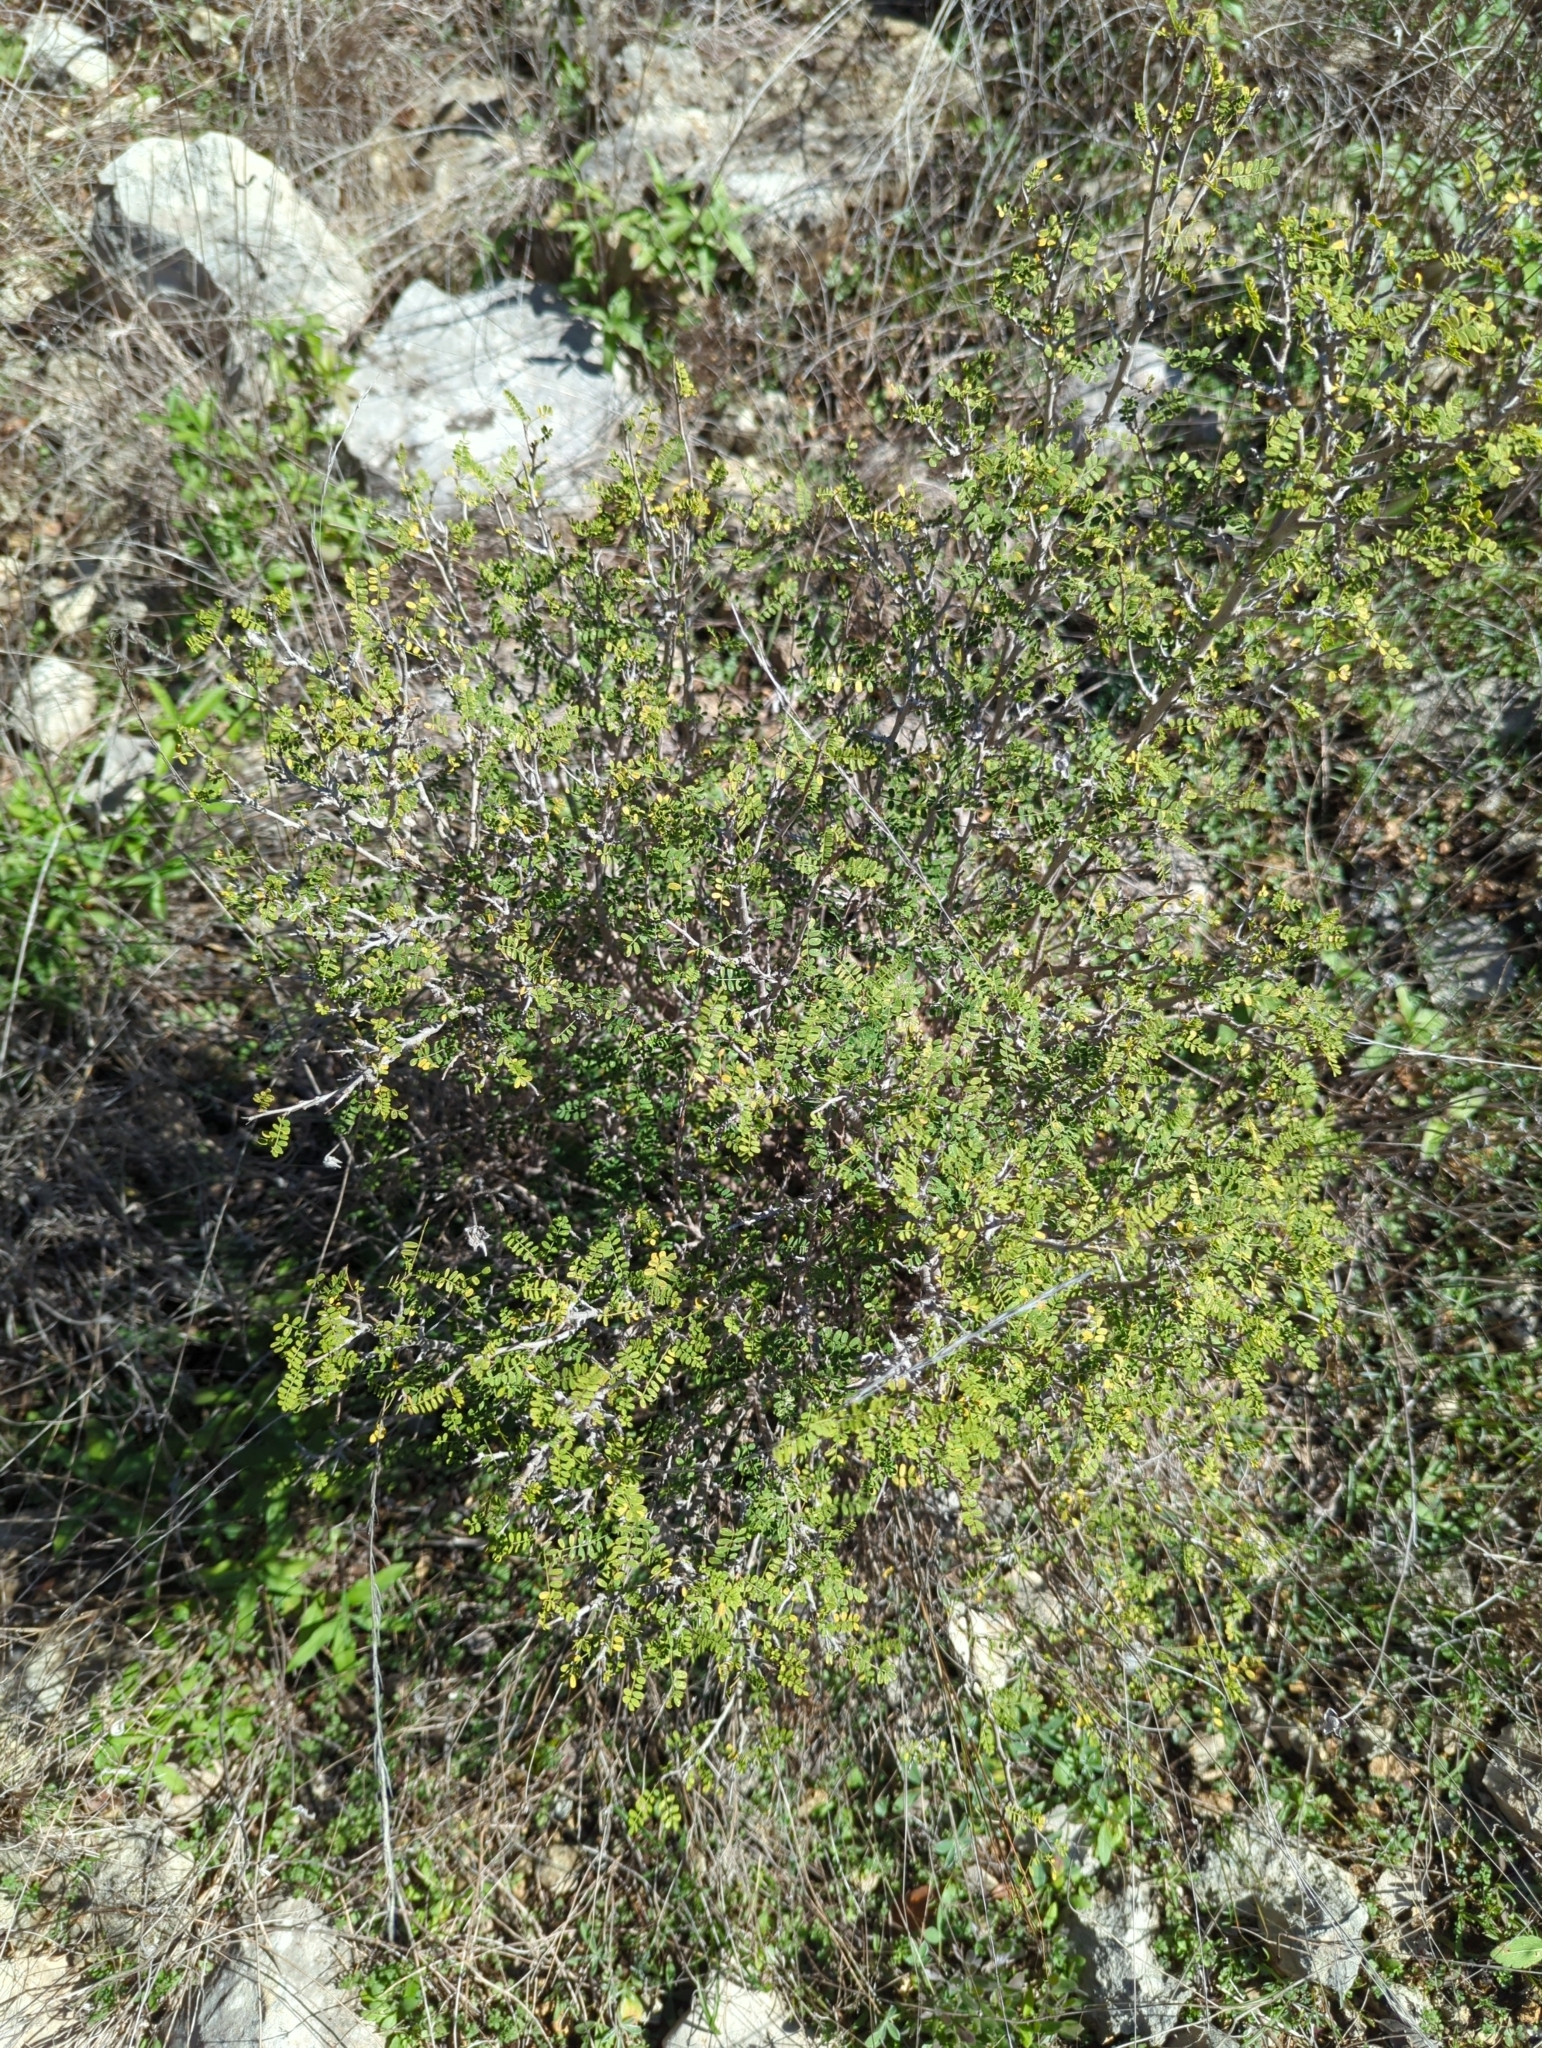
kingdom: Plantae
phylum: Tracheophyta
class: Magnoliopsida
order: Fabales
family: Fabaceae
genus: Eysenhardtia
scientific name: Eysenhardtia texana
